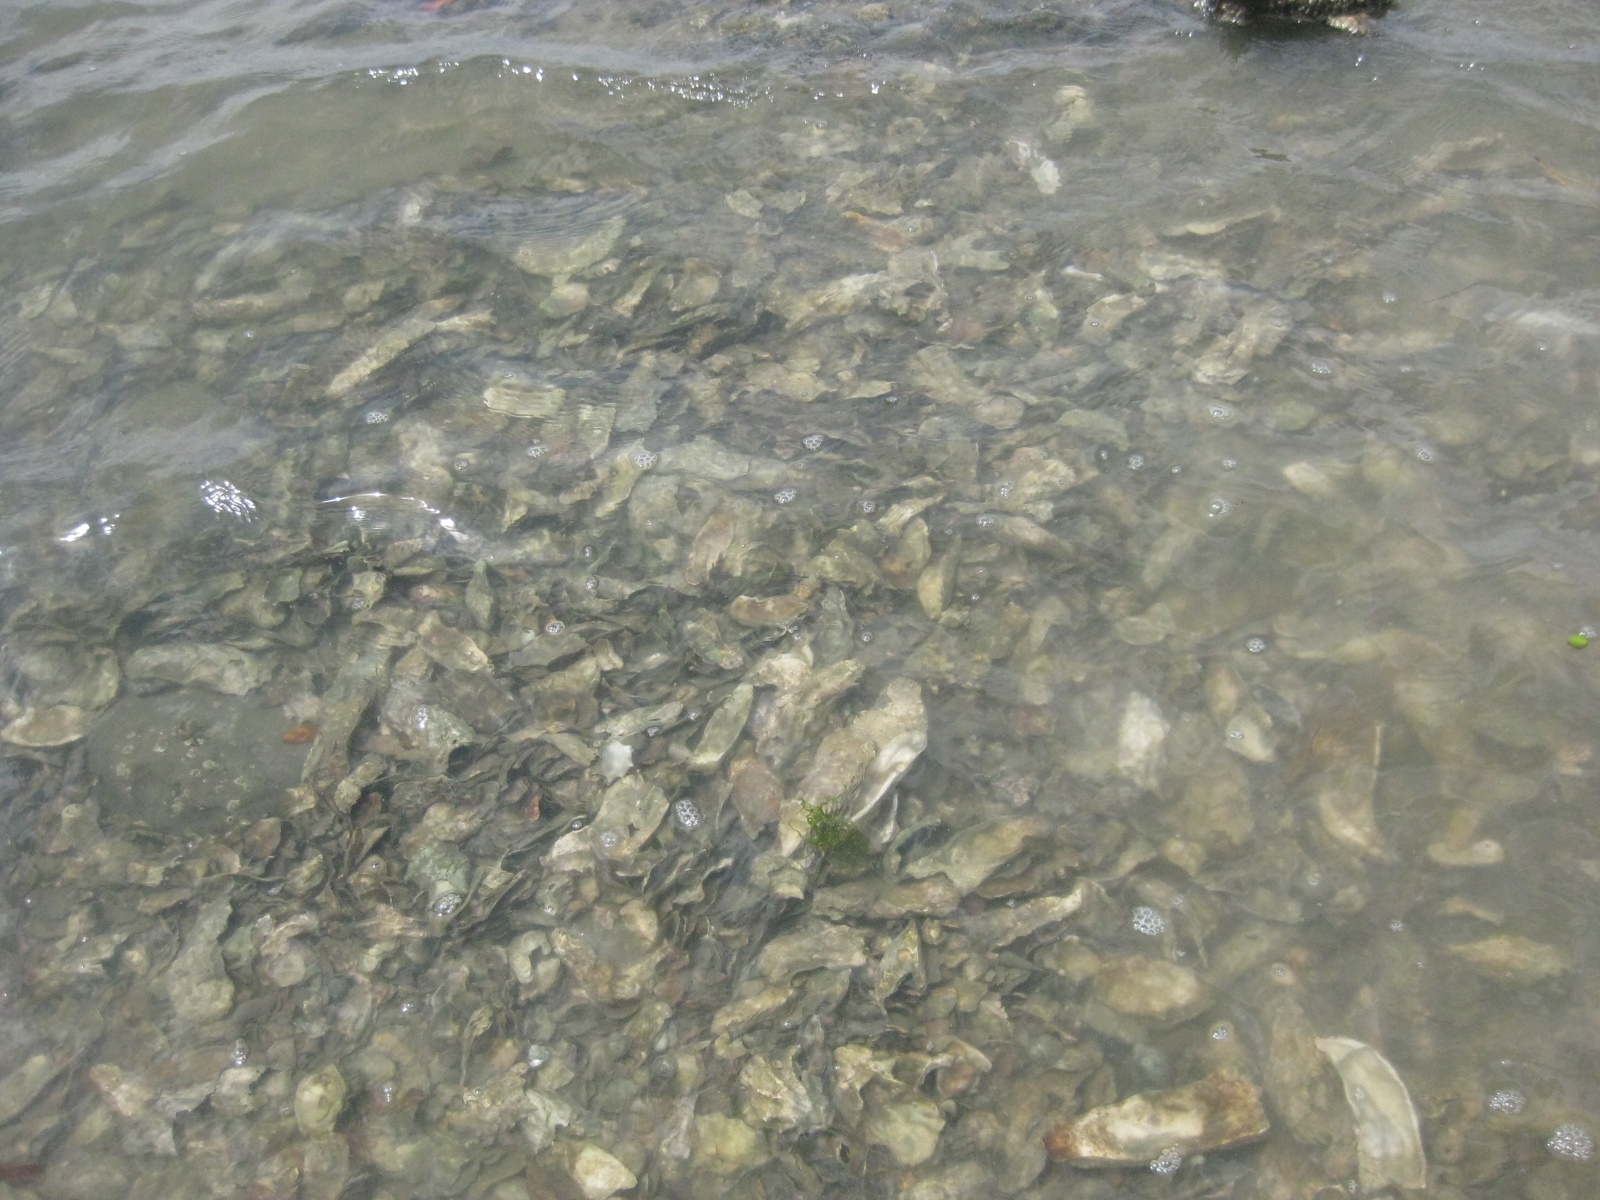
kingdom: Animalia
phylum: Mollusca
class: Bivalvia
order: Ostreida
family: Ostreidae
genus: Magallana
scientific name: Magallana gigas
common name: Pacific oyster
